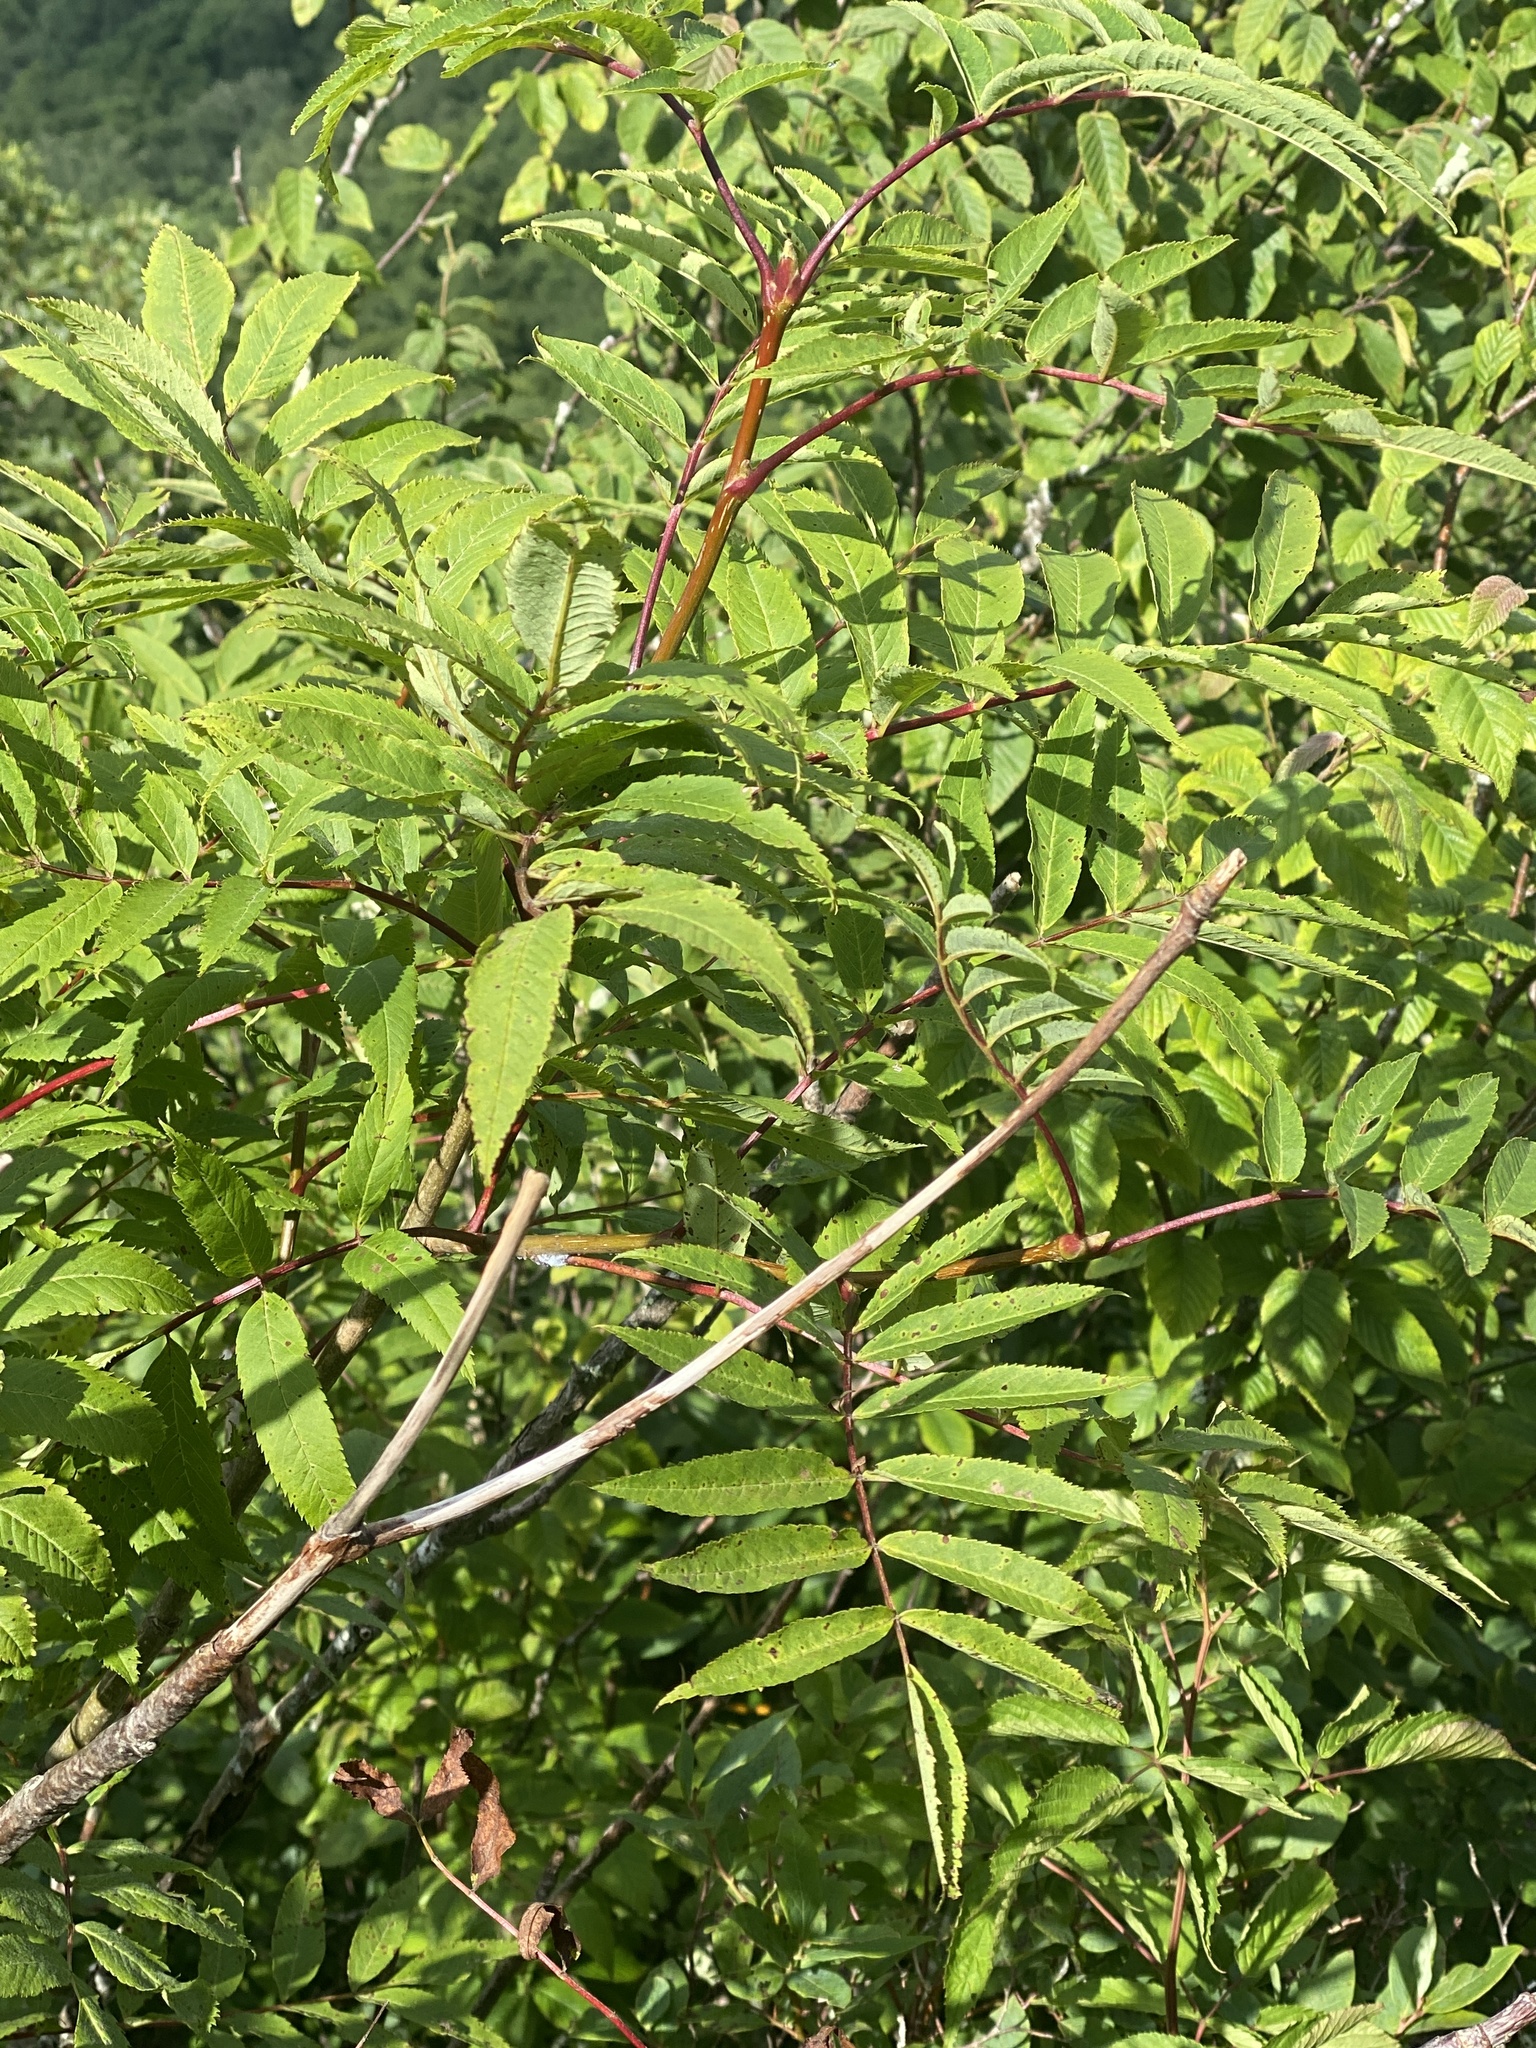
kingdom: Plantae
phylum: Tracheophyta
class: Magnoliopsida
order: Rosales
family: Rosaceae
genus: Sorbus
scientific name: Sorbus americana
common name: American mountain-ash
